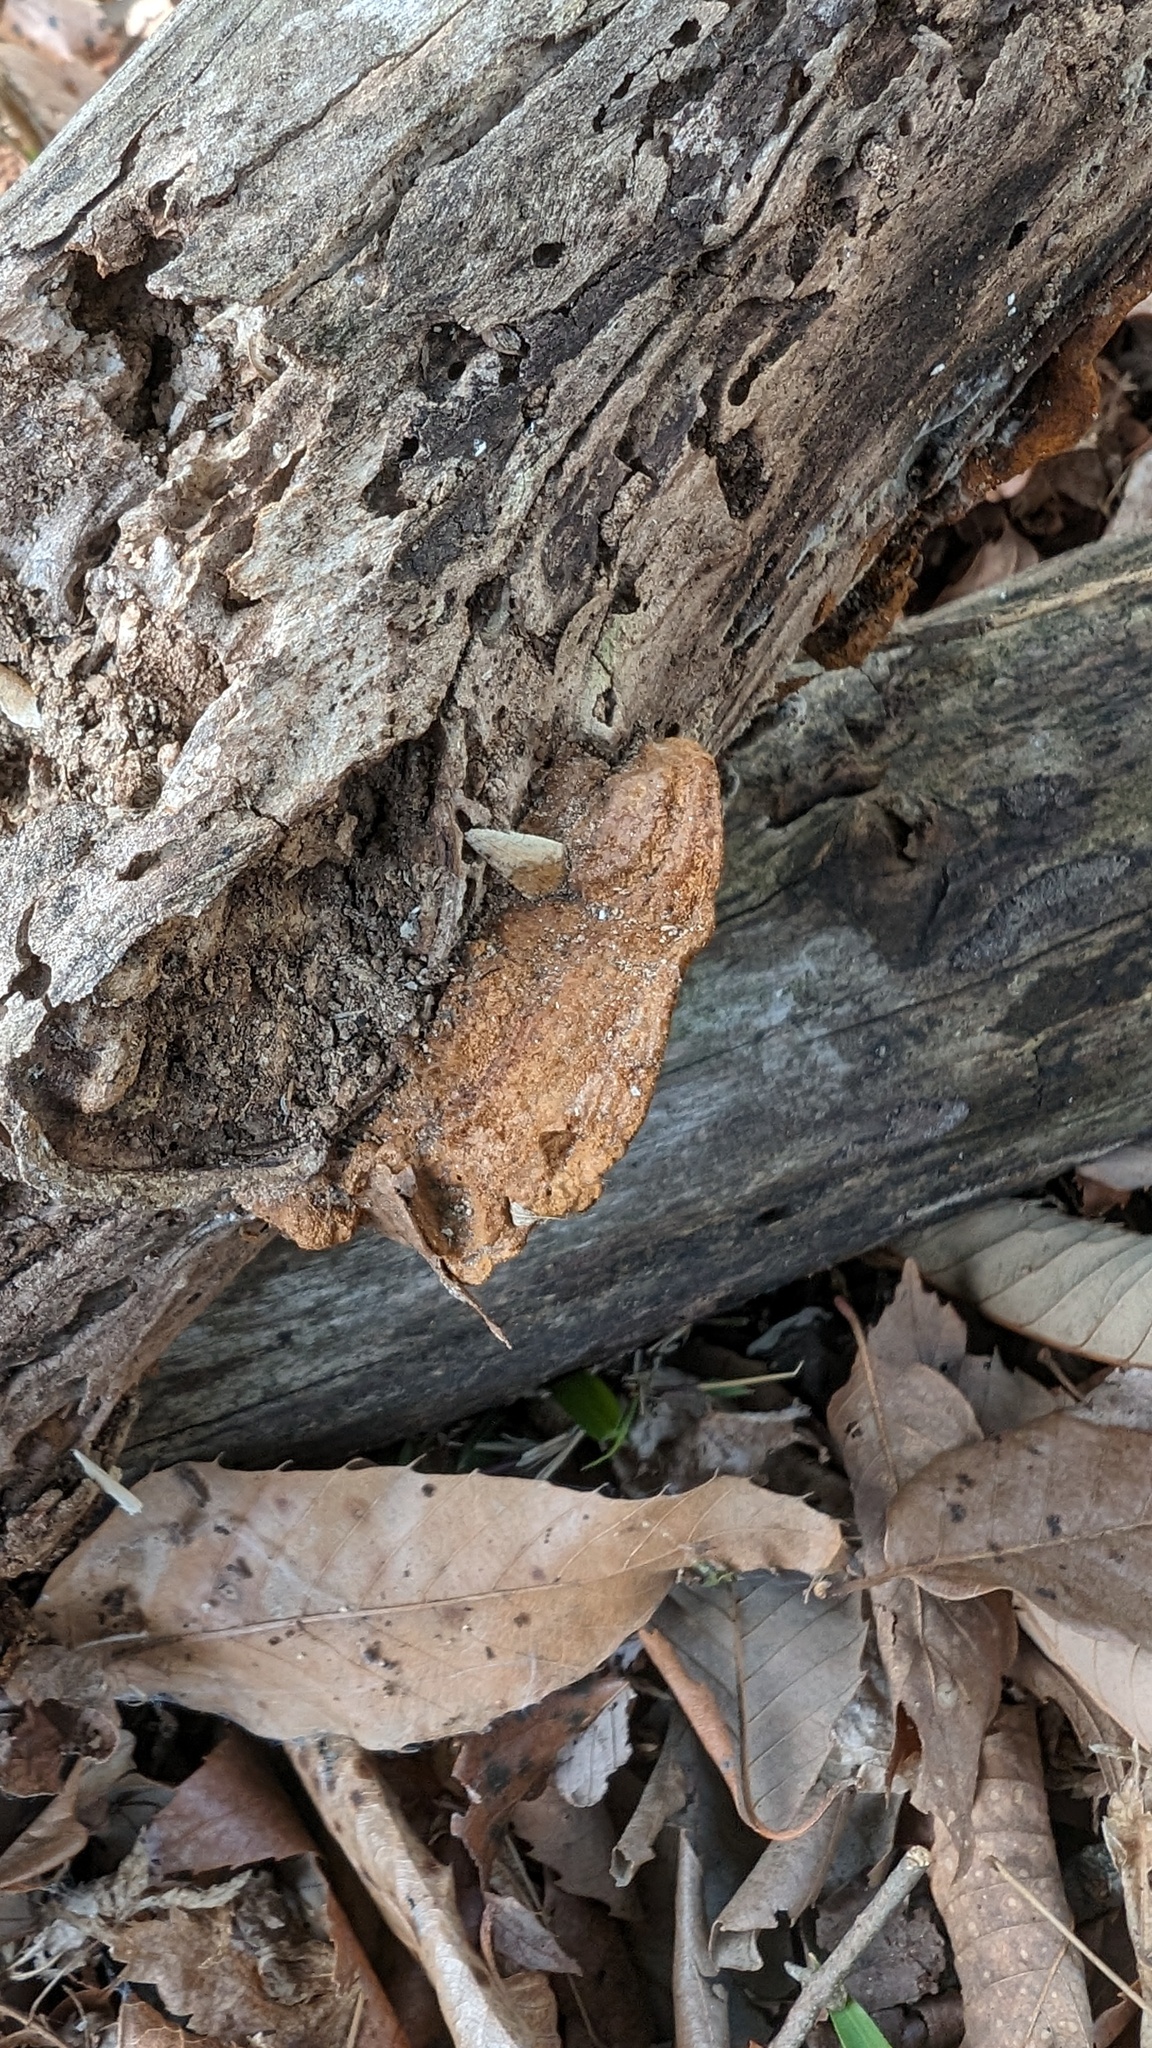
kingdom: Fungi
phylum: Basidiomycota
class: Agaricomycetes
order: Hymenochaetales
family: Hymenochaetaceae
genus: Phellinus
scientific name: Phellinus gilvus
